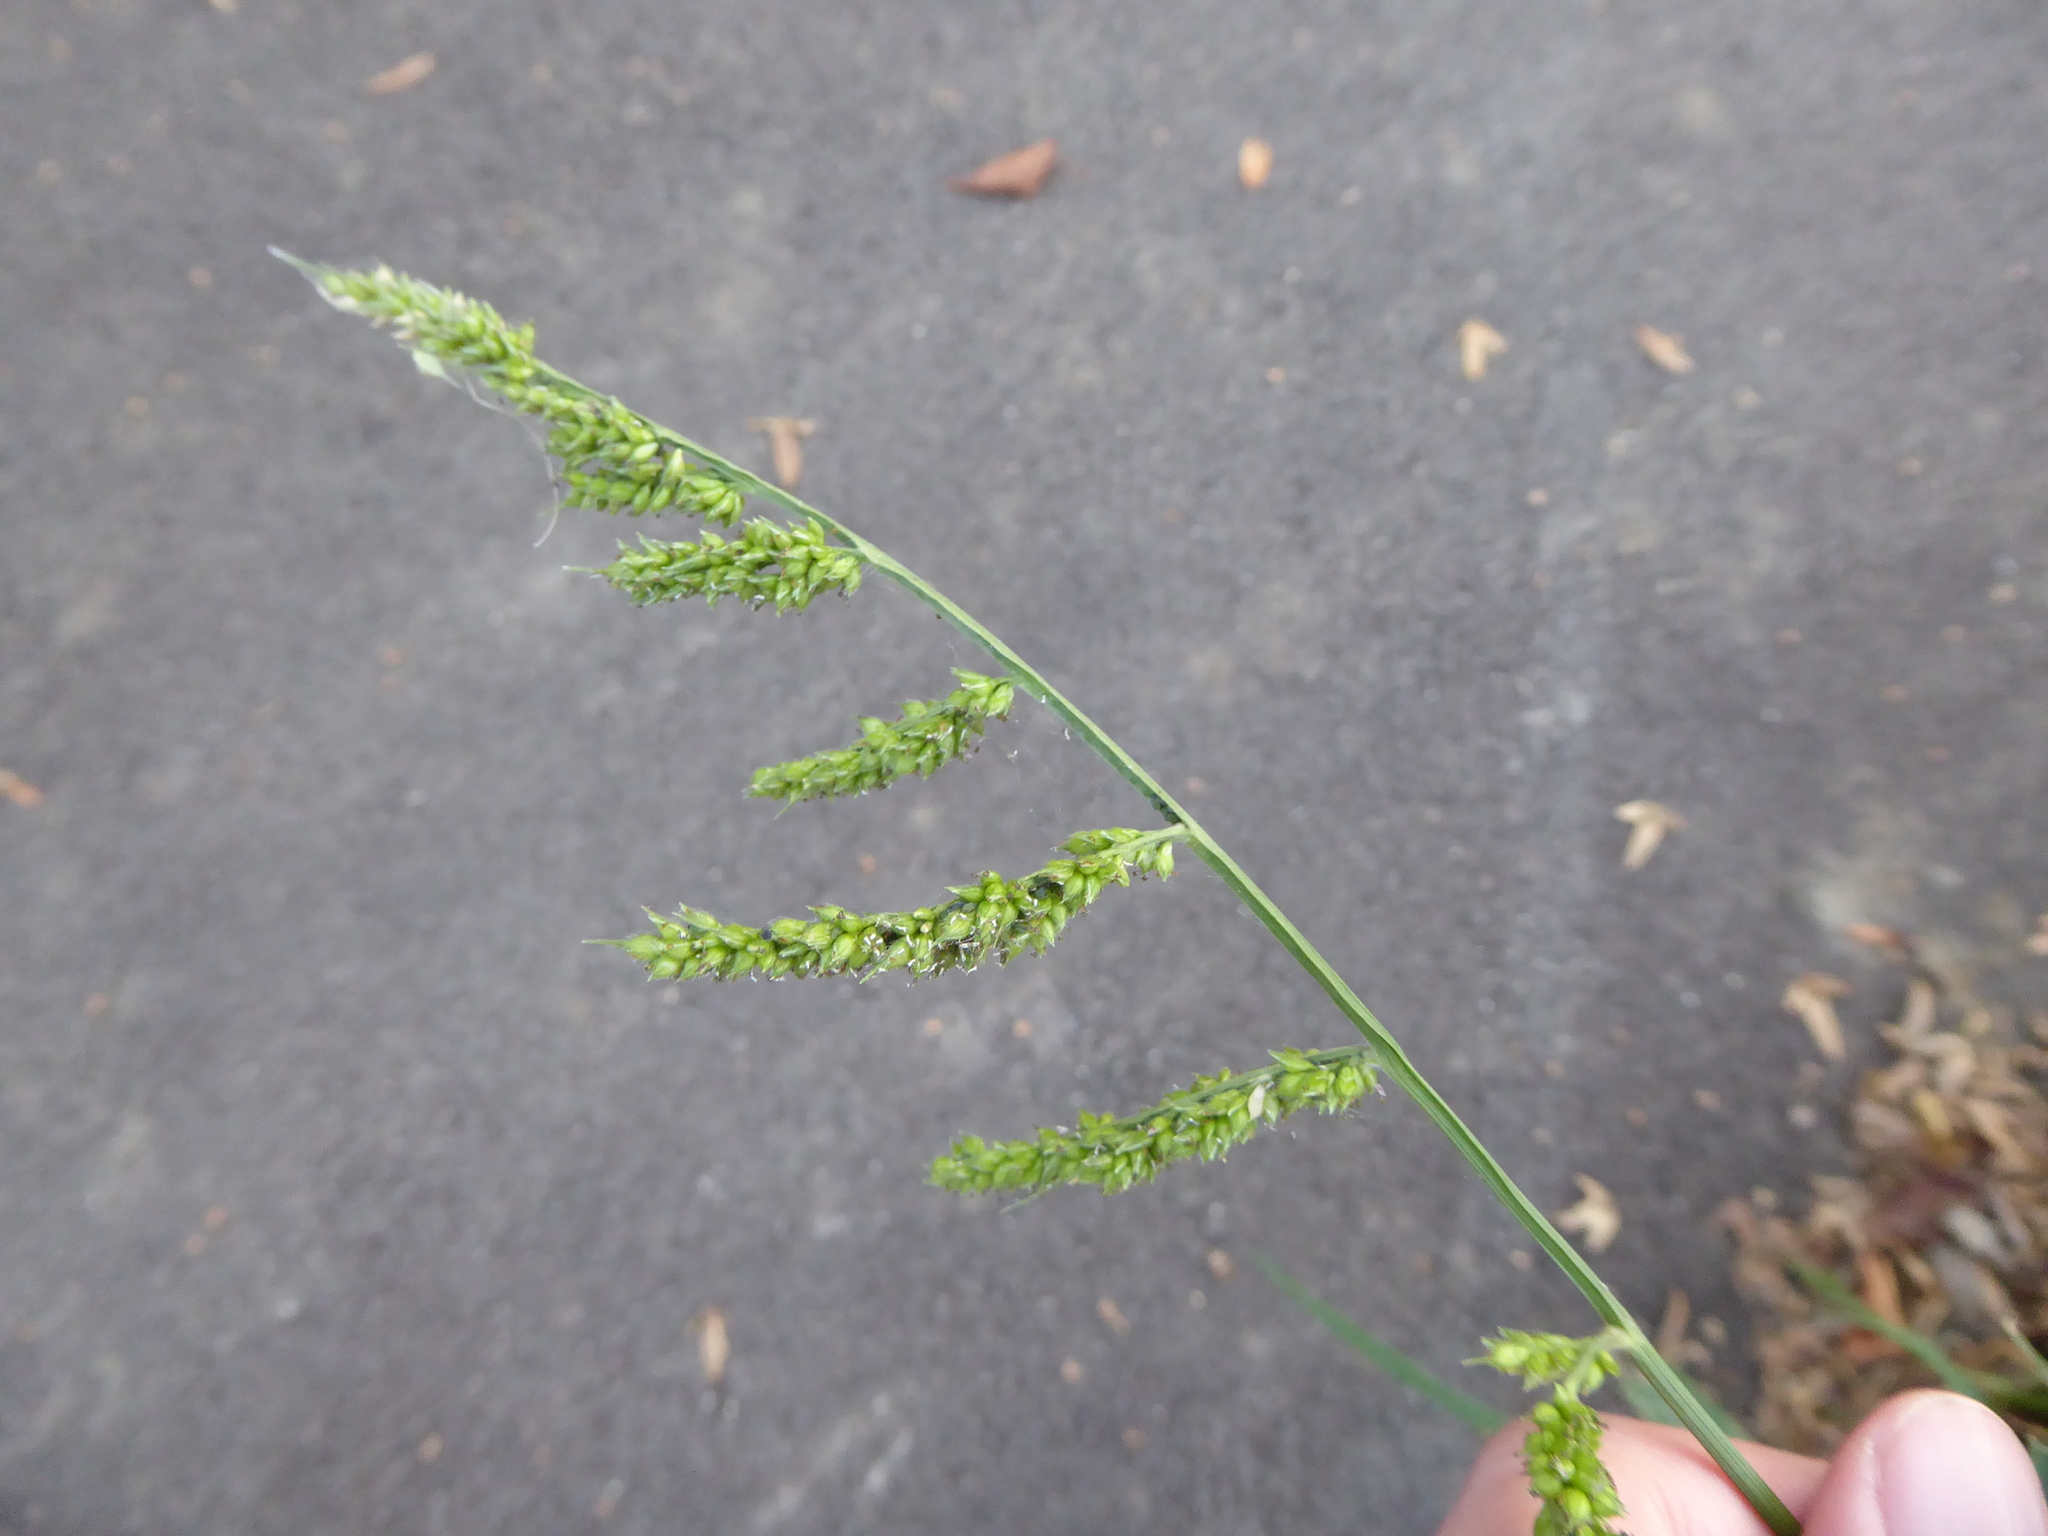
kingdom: Plantae
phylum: Tracheophyta
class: Liliopsida
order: Poales
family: Poaceae
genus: Echinochloa
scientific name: Echinochloa crus-galli
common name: Cockspur
